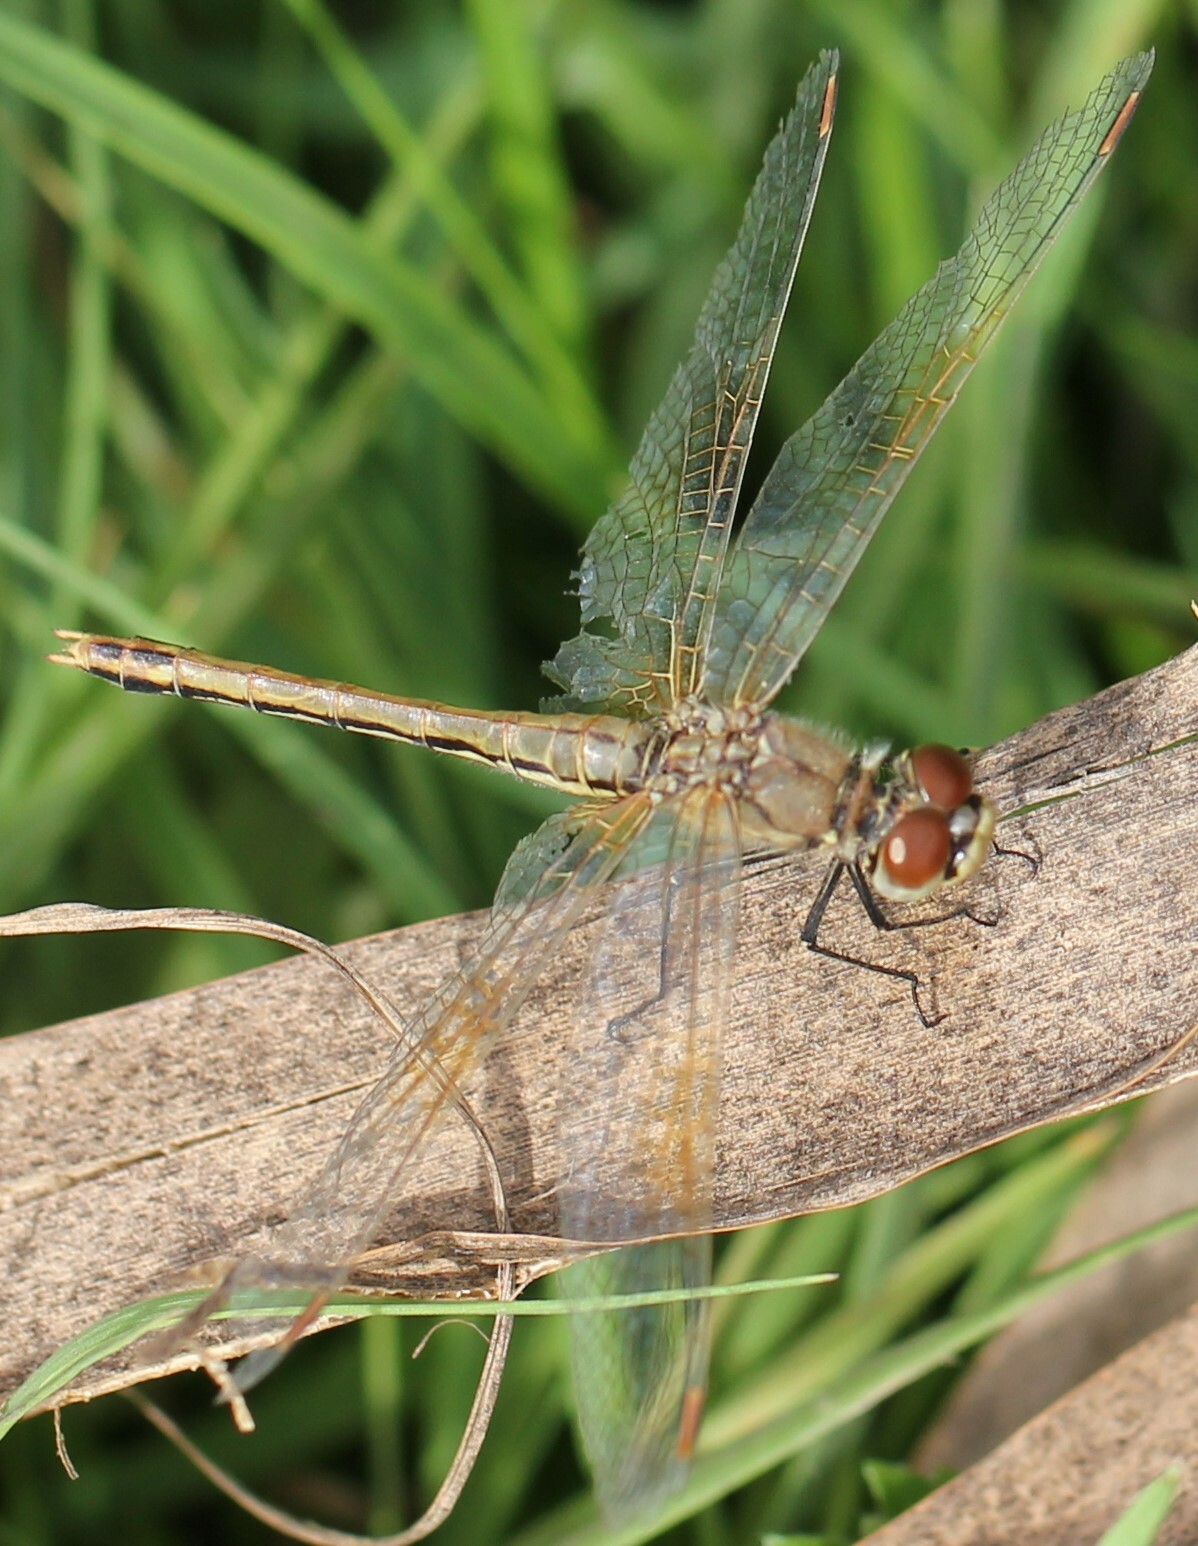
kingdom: Animalia
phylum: Arthropoda
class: Insecta
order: Odonata
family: Libellulidae
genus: Sympetrum
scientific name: Sympetrum flaveolum
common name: Yellow-winged darter
